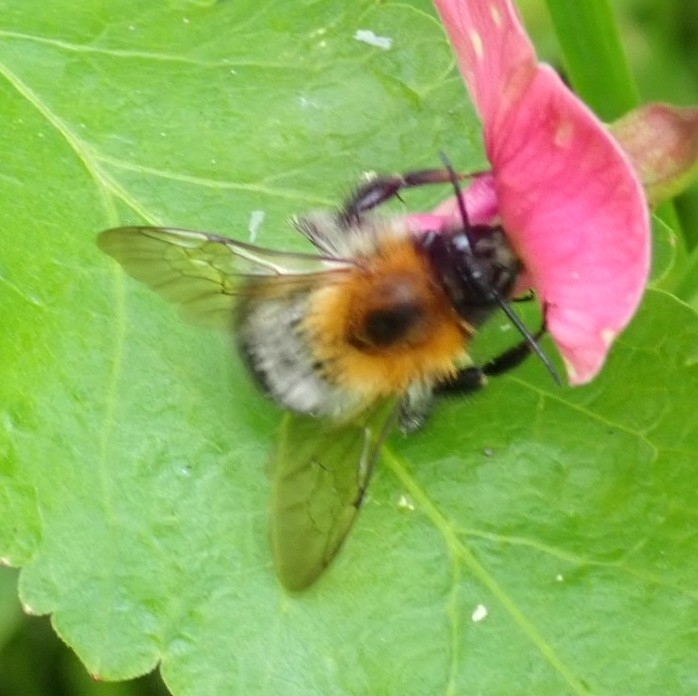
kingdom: Animalia
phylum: Arthropoda
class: Insecta
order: Hymenoptera
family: Apidae
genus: Bombus
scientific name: Bombus pascuorum
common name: Common carder bee
